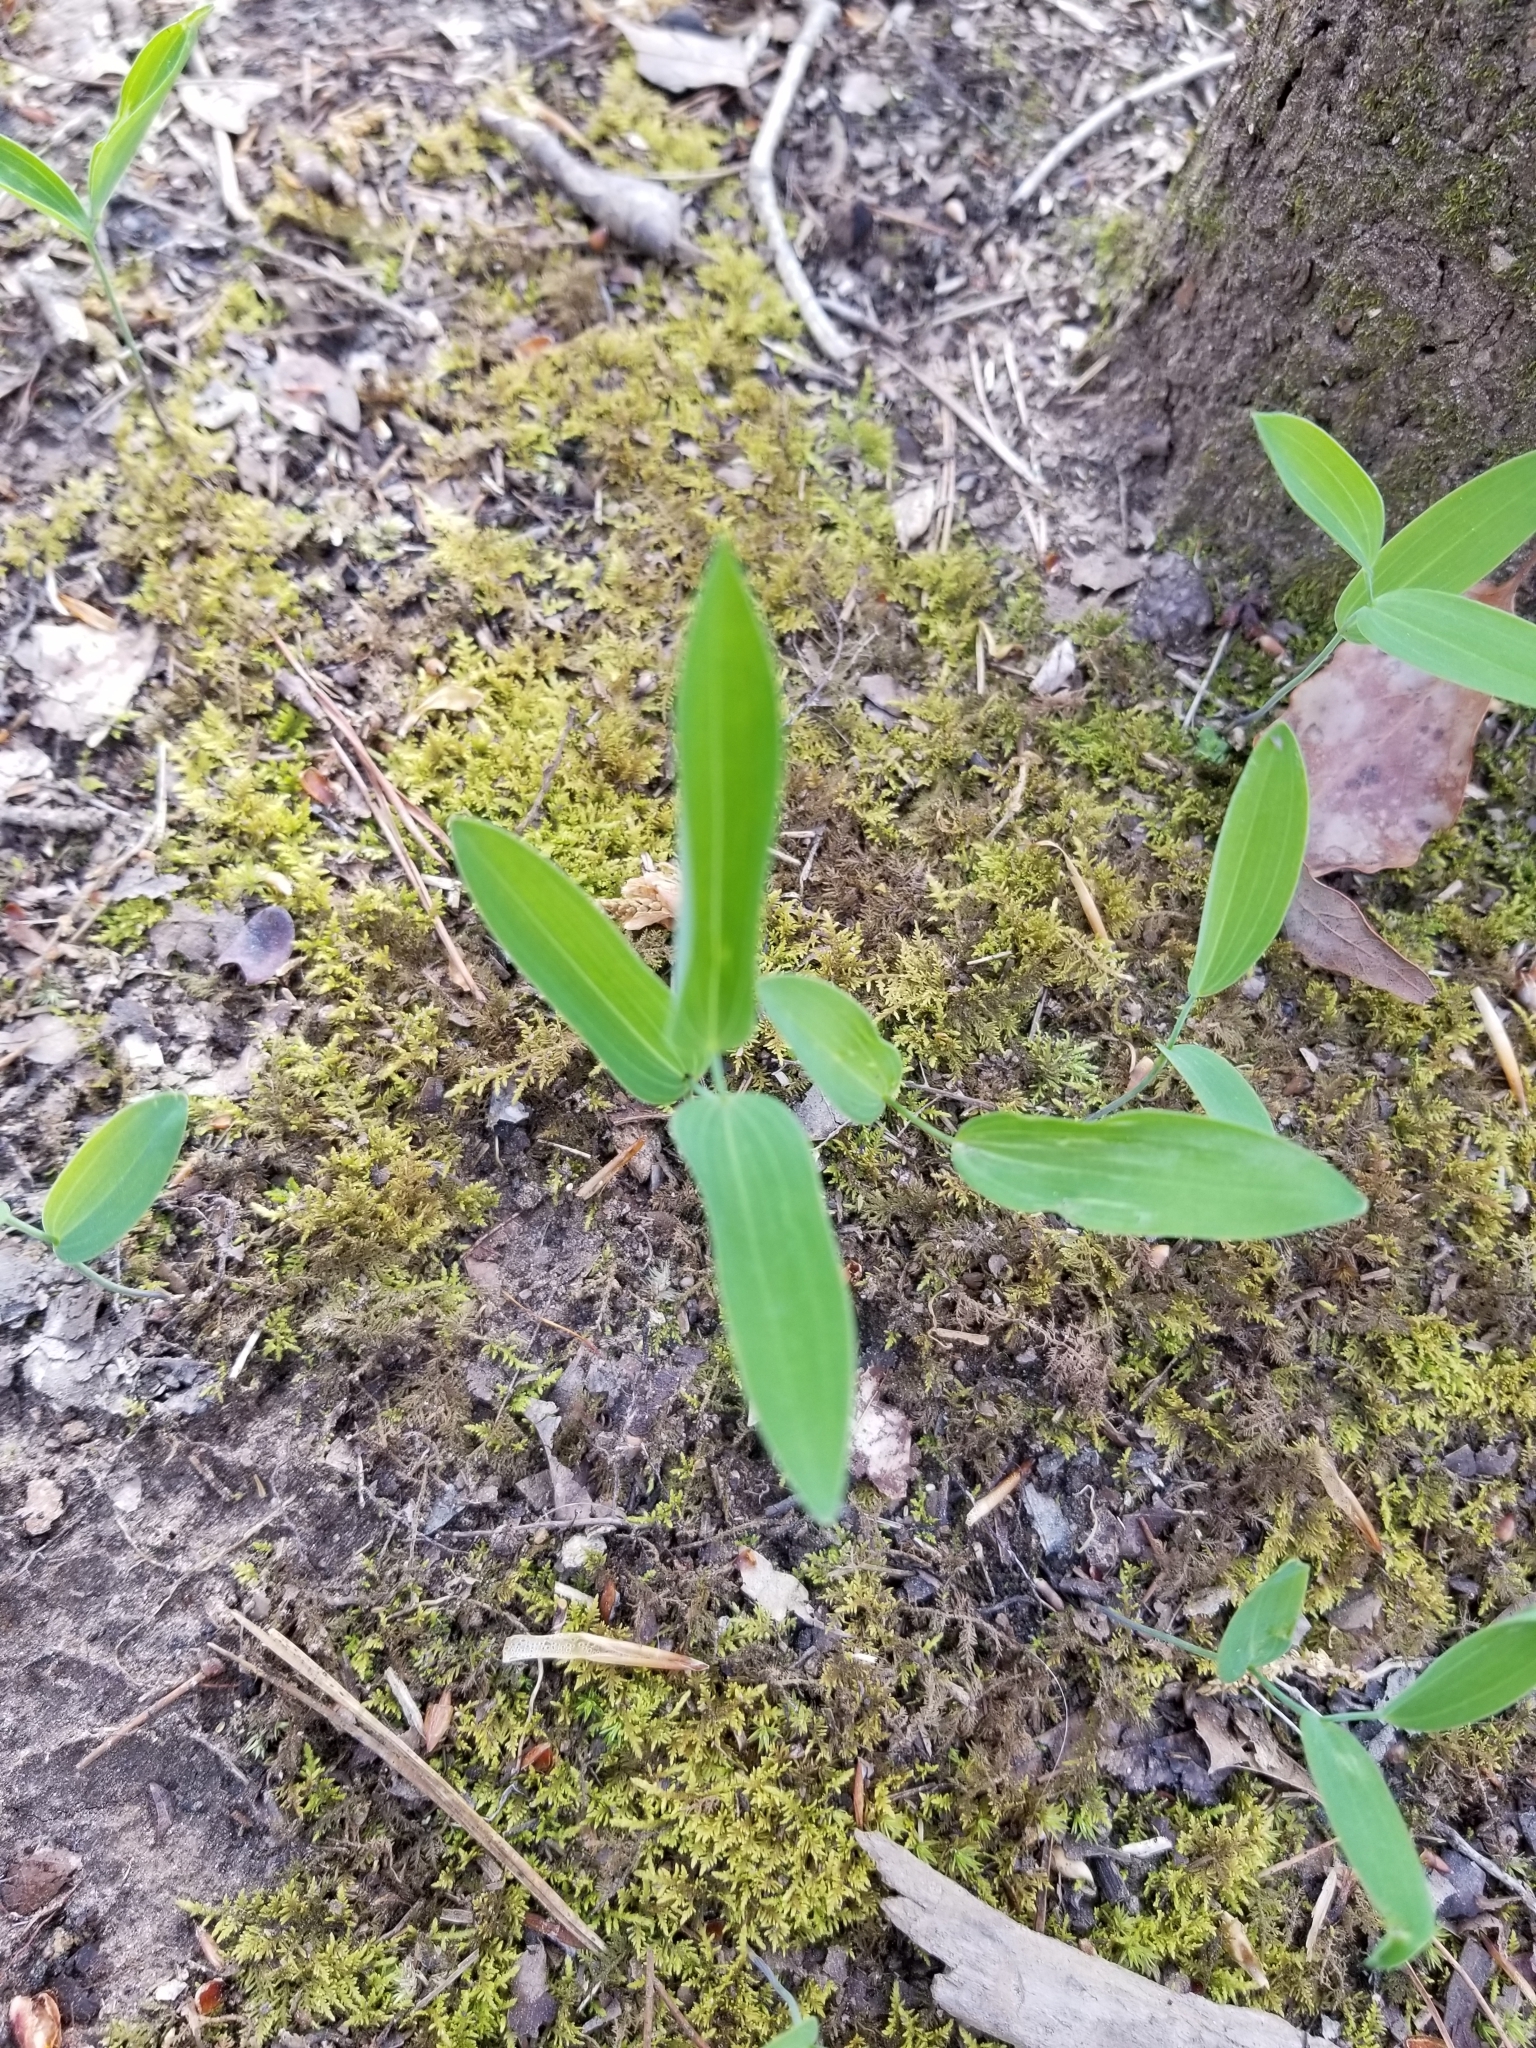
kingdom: Plantae
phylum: Tracheophyta
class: Liliopsida
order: Asparagales
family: Asparagaceae
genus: Polygonatum
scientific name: Polygonatum biflorum
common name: American solomon's-seal
